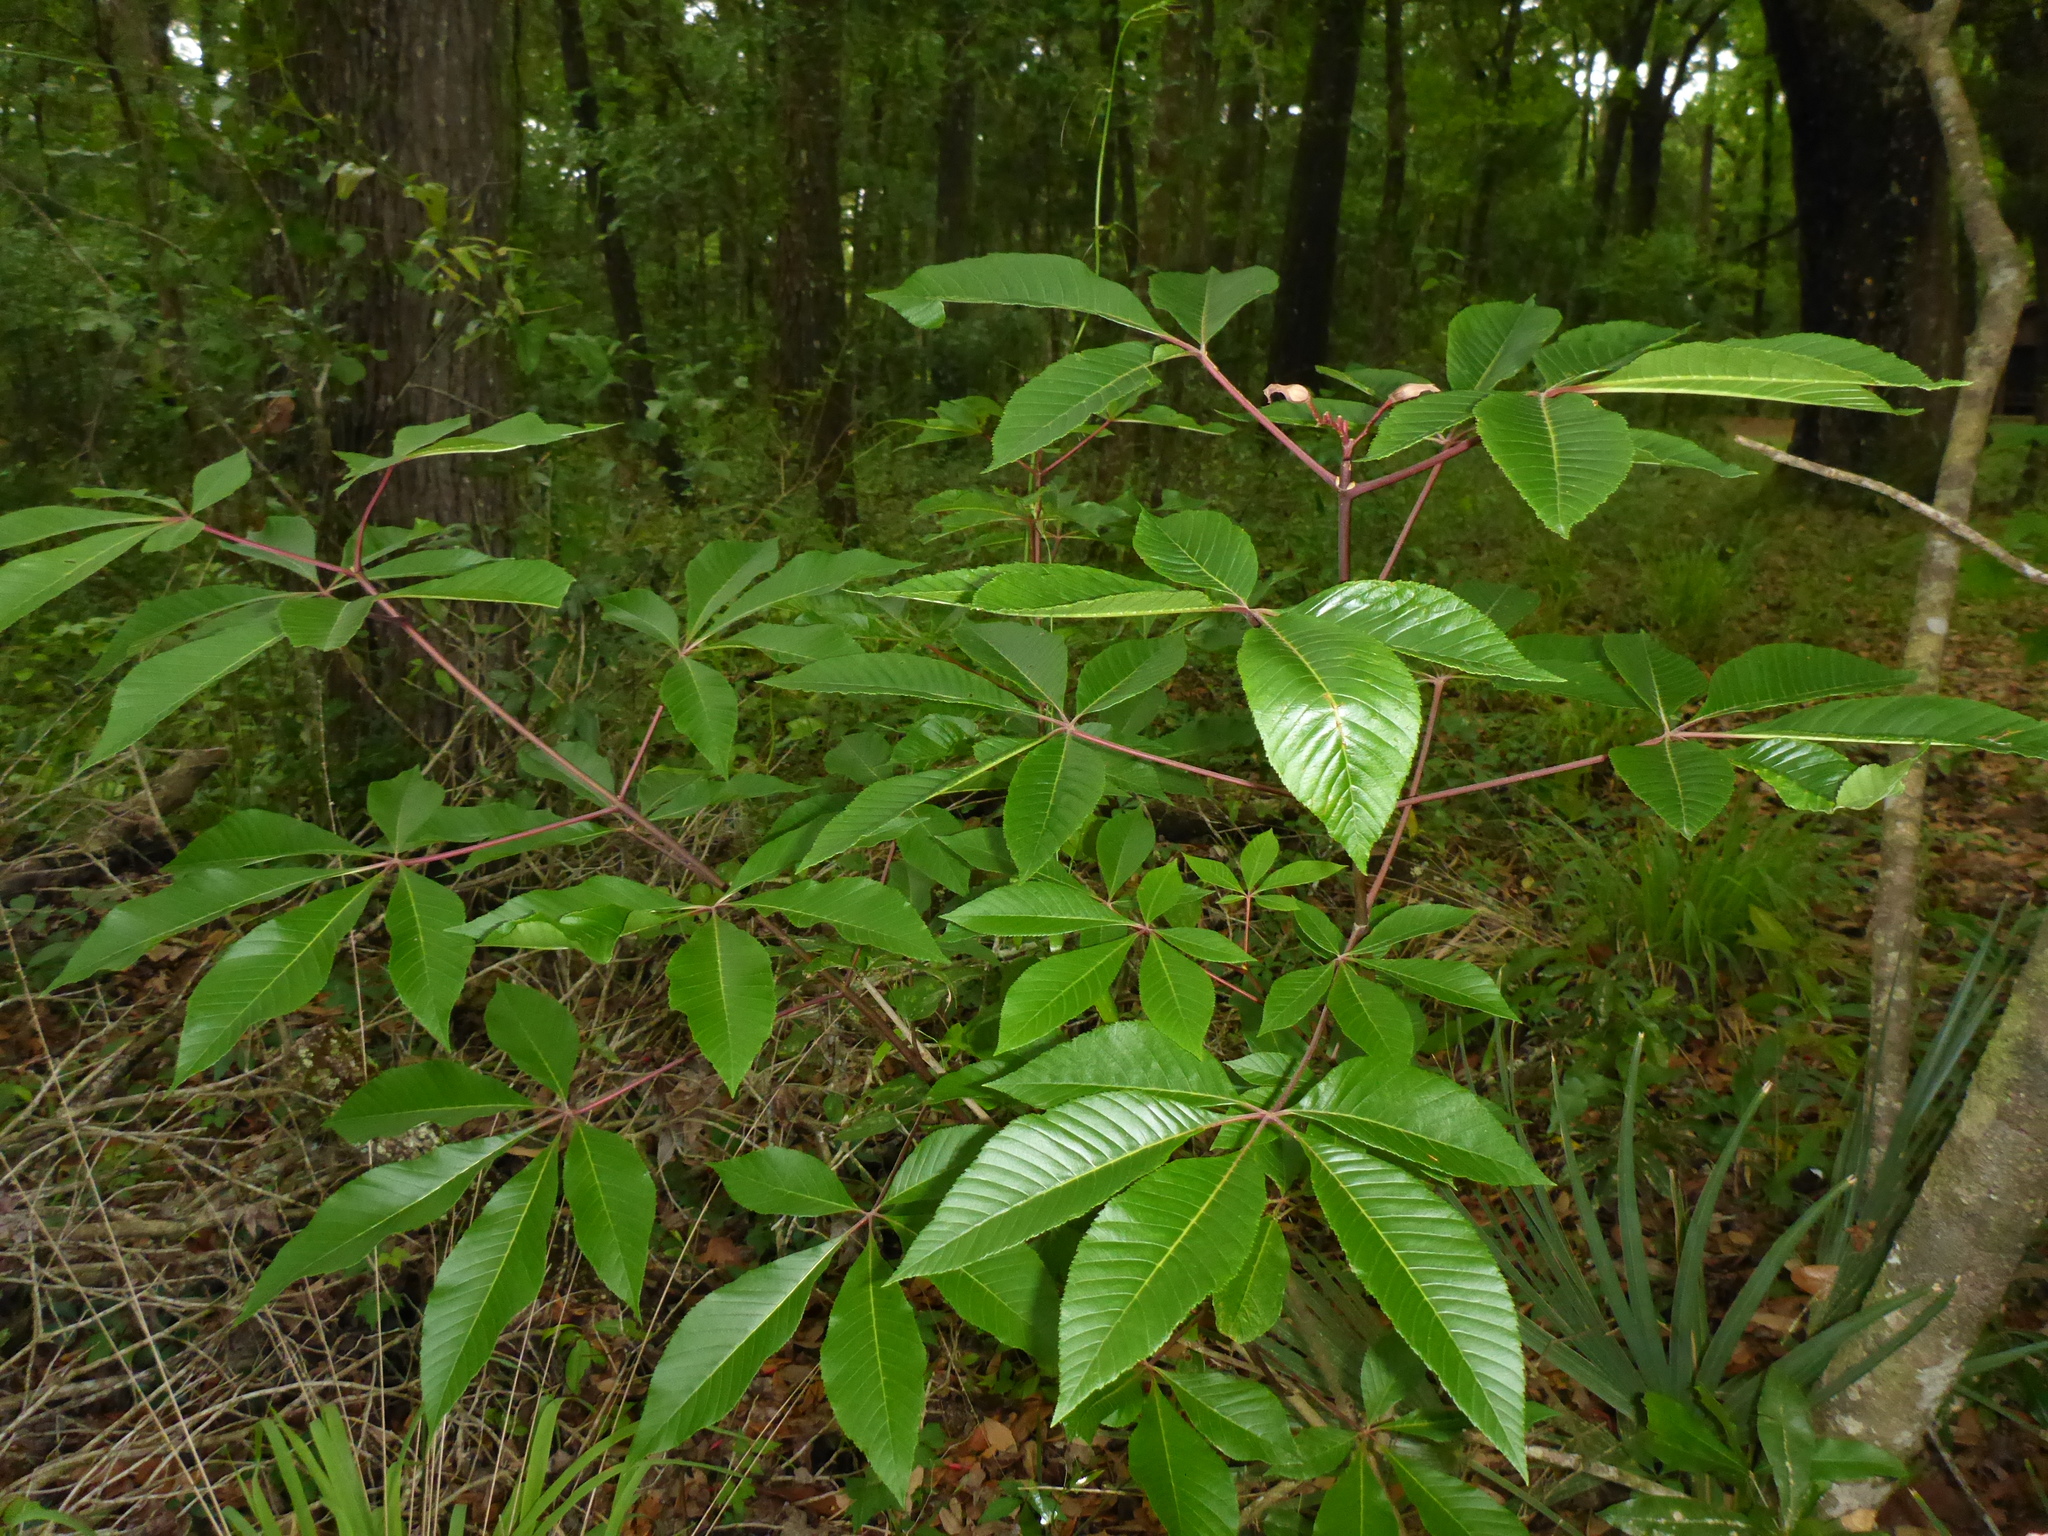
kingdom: Plantae
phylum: Tracheophyta
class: Magnoliopsida
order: Sapindales
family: Sapindaceae
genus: Aesculus
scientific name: Aesculus pavia
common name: Red buckeye
